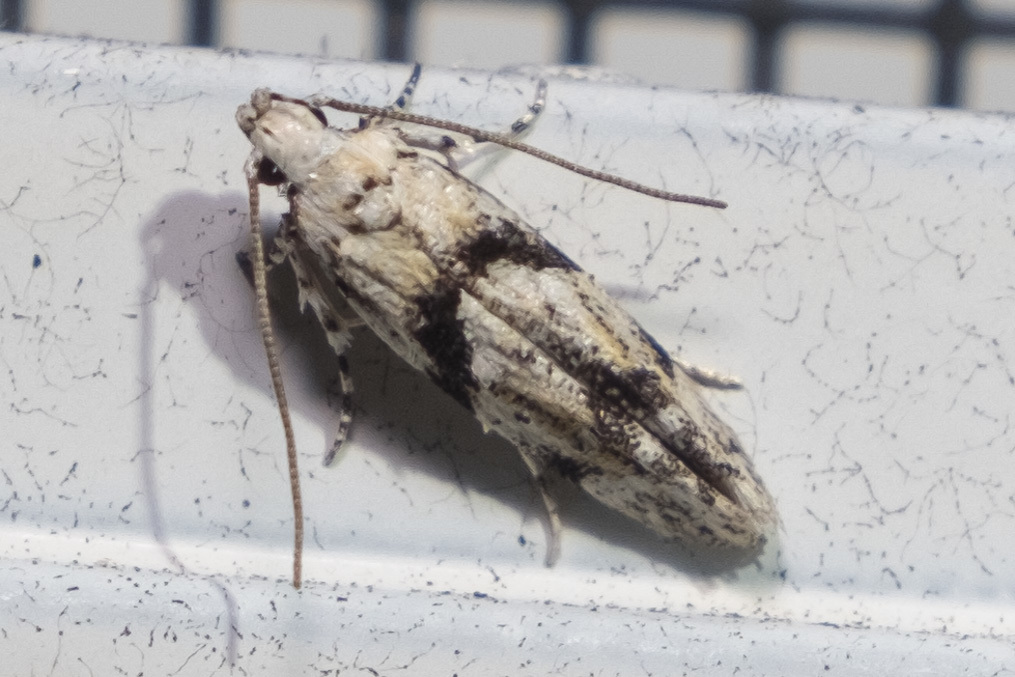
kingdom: Animalia
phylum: Arthropoda
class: Insecta
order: Lepidoptera
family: Gelechiidae
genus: Arogalea
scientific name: Arogalea cristifasciella
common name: White stripe-backed moth
